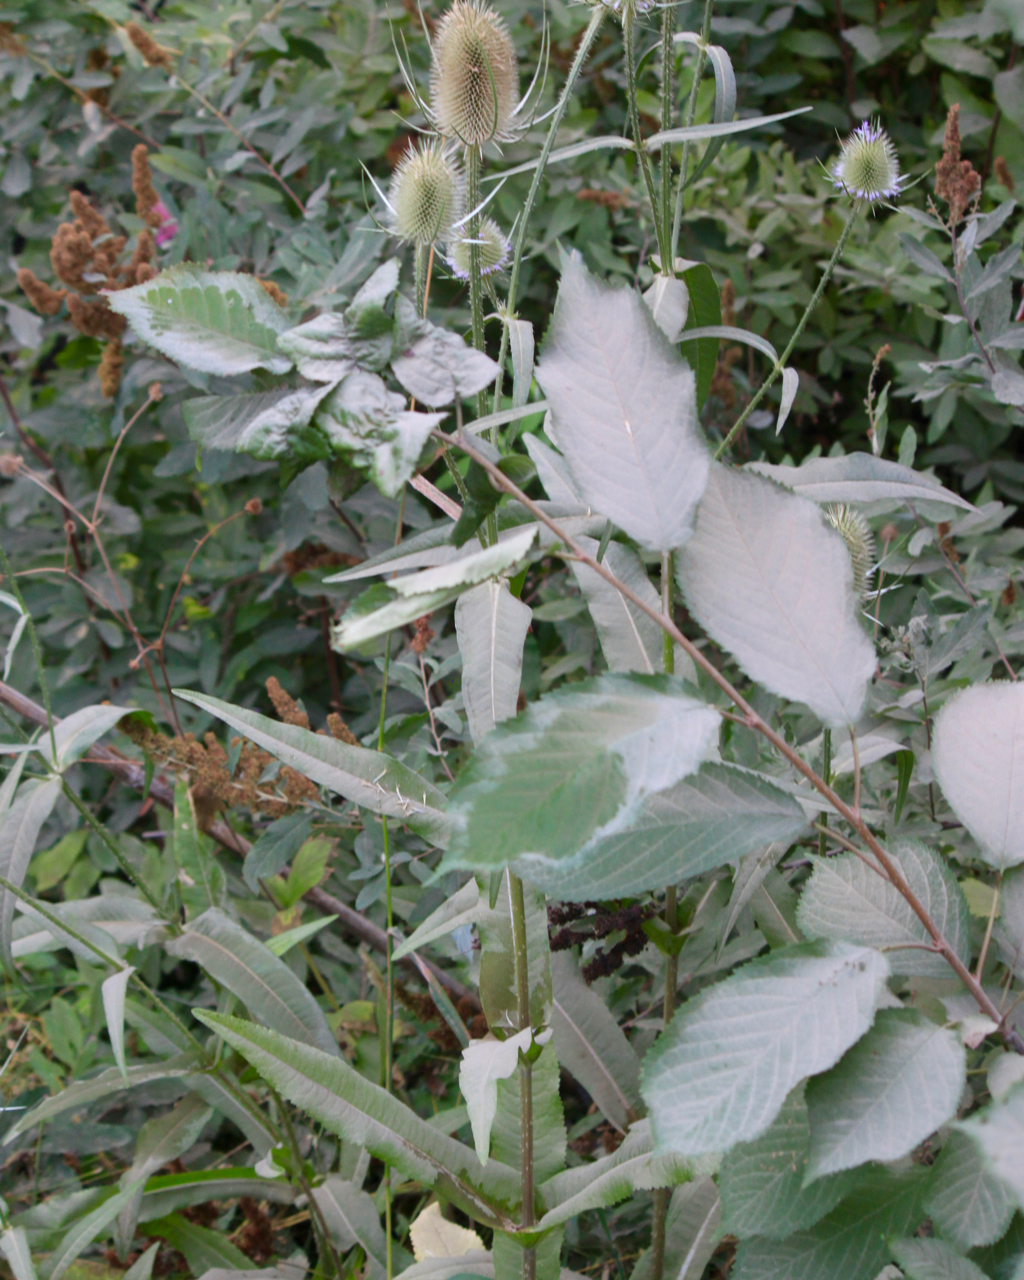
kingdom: Plantae
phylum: Tracheophyta
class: Magnoliopsida
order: Dipsacales
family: Caprifoliaceae
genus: Dipsacus
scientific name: Dipsacus fullonum
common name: Teasel
